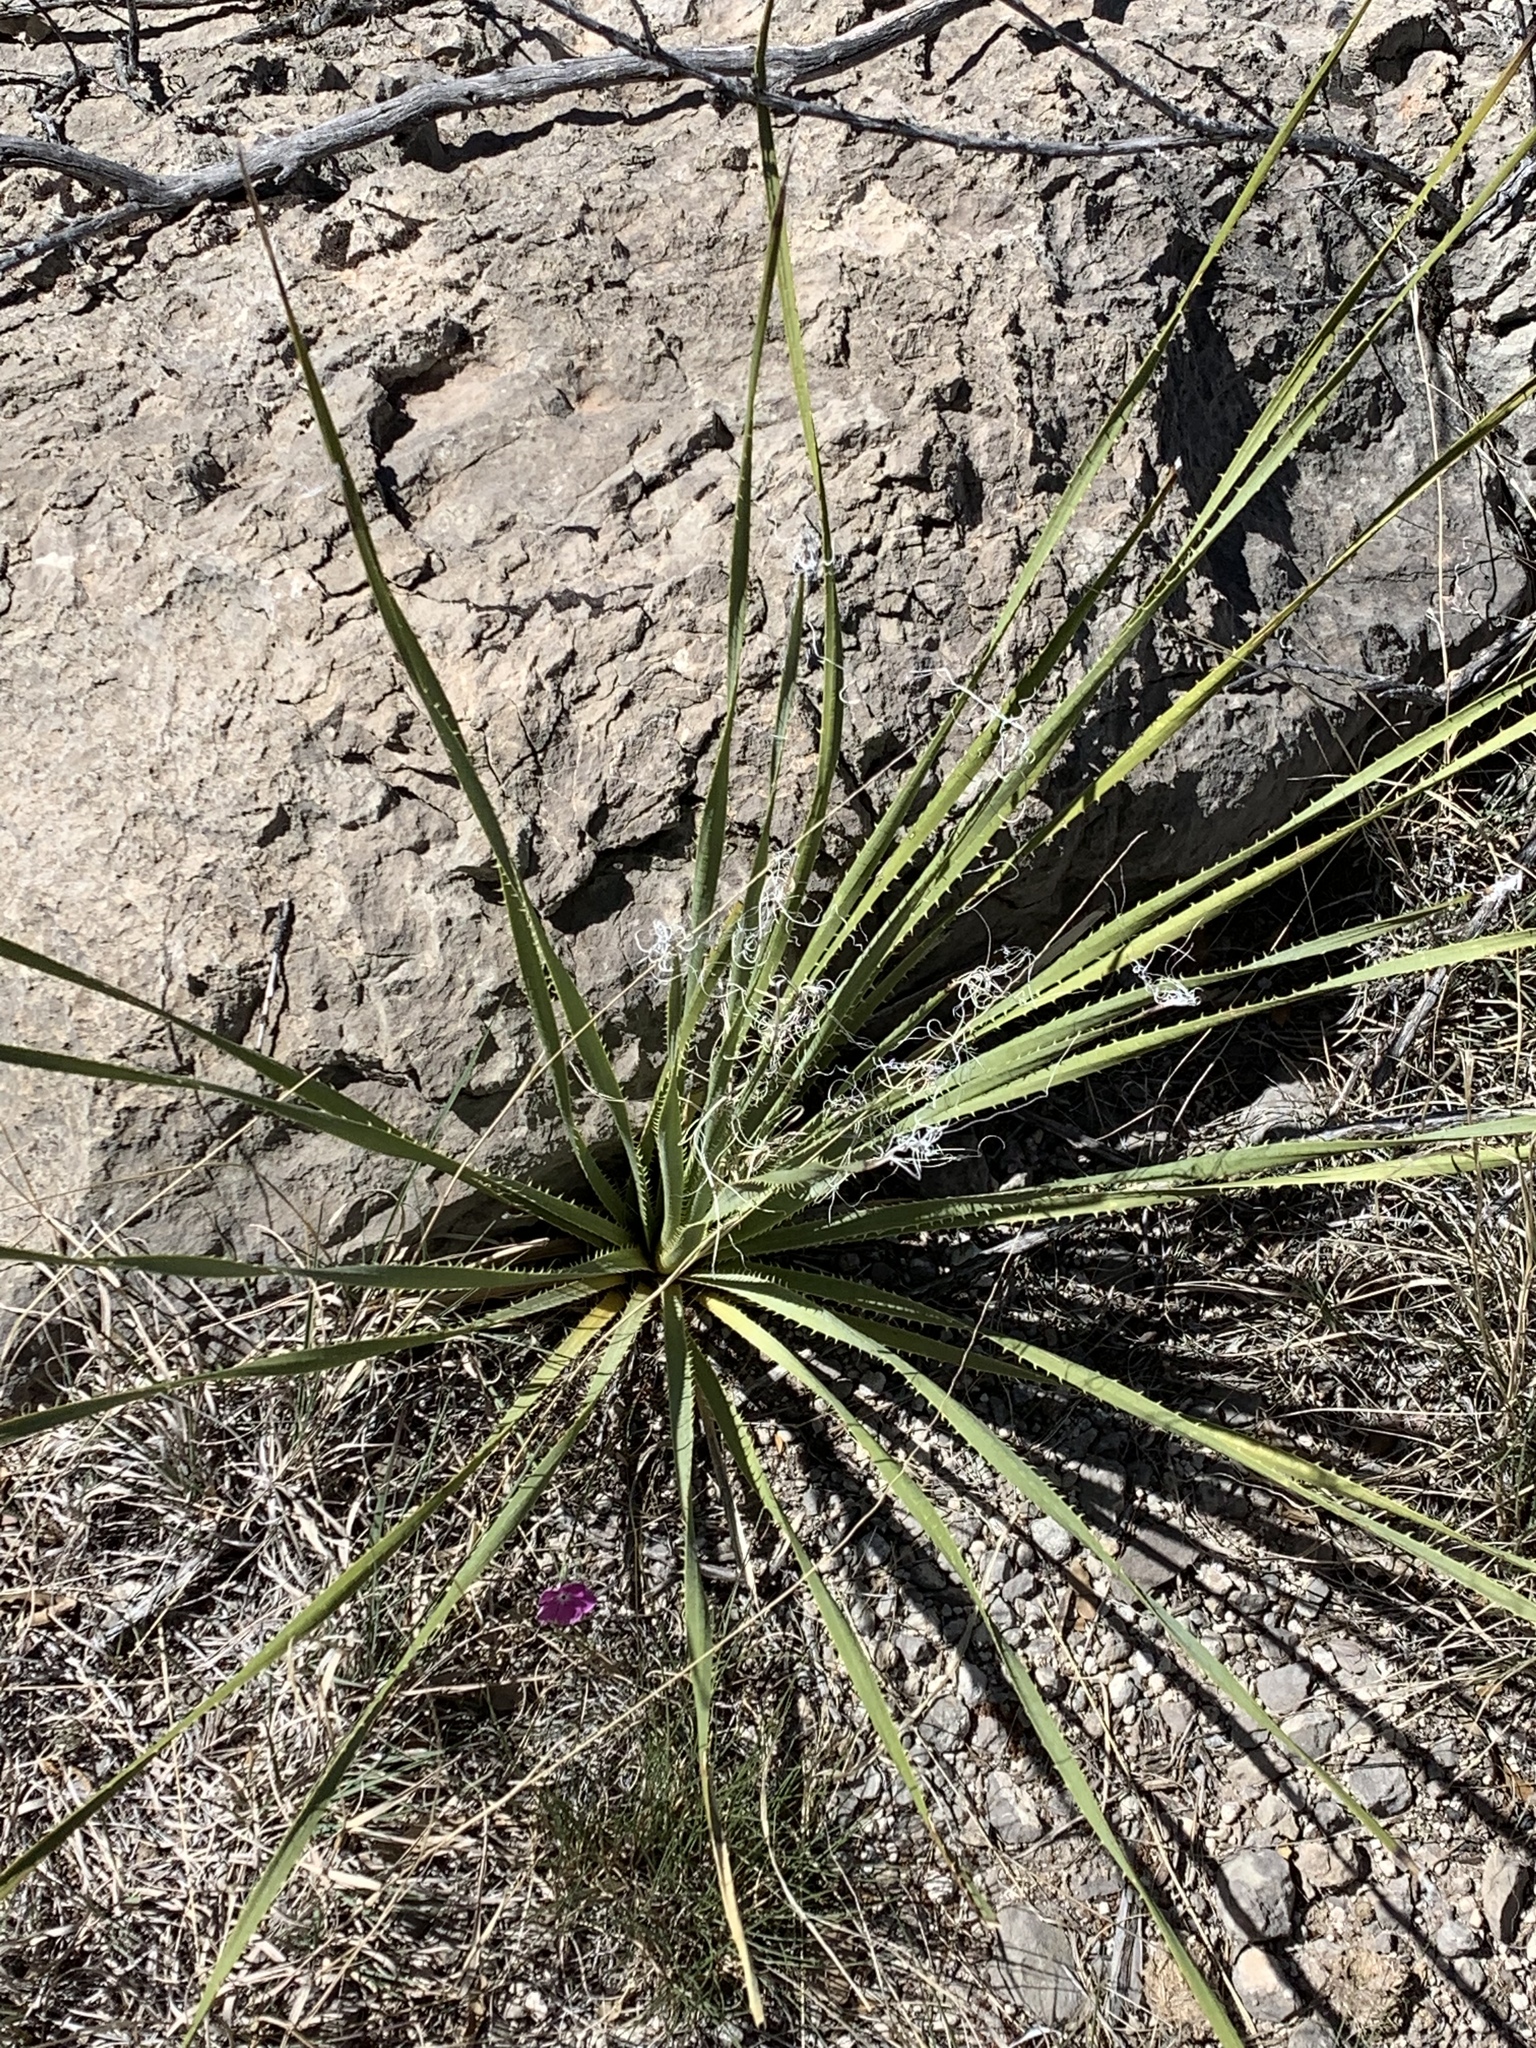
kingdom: Plantae
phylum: Tracheophyta
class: Liliopsida
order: Asparagales
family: Asparagaceae
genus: Dasylirion
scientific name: Dasylirion wheeleri
